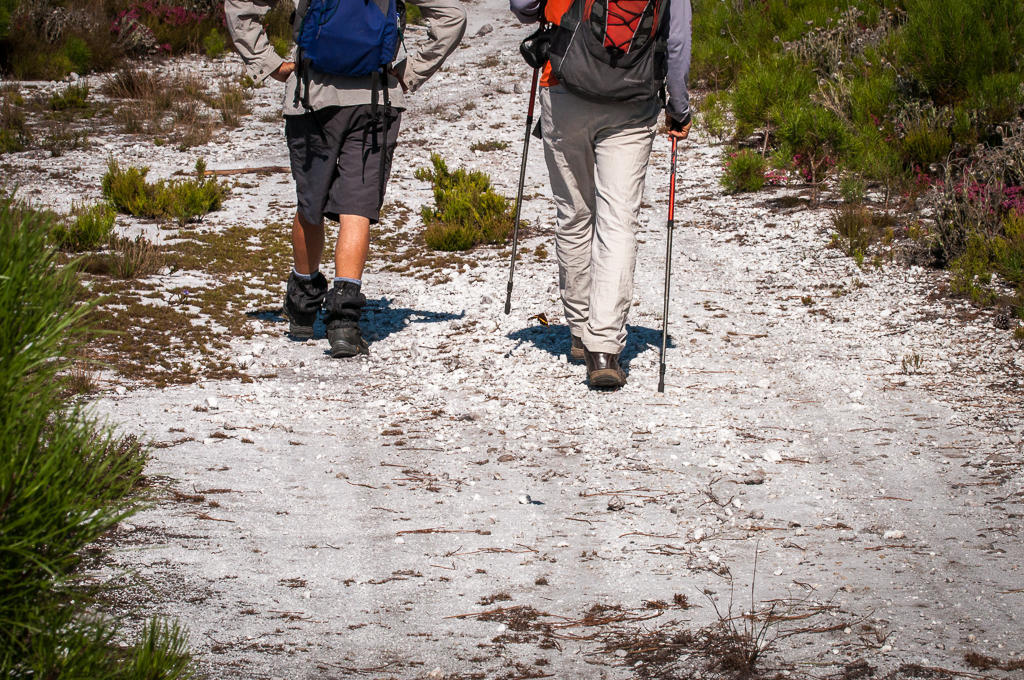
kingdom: Animalia
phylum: Arthropoda
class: Insecta
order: Lepidoptera
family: Nymphalidae
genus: Meneris
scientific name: Meneris Aeropetes tulbaghia
